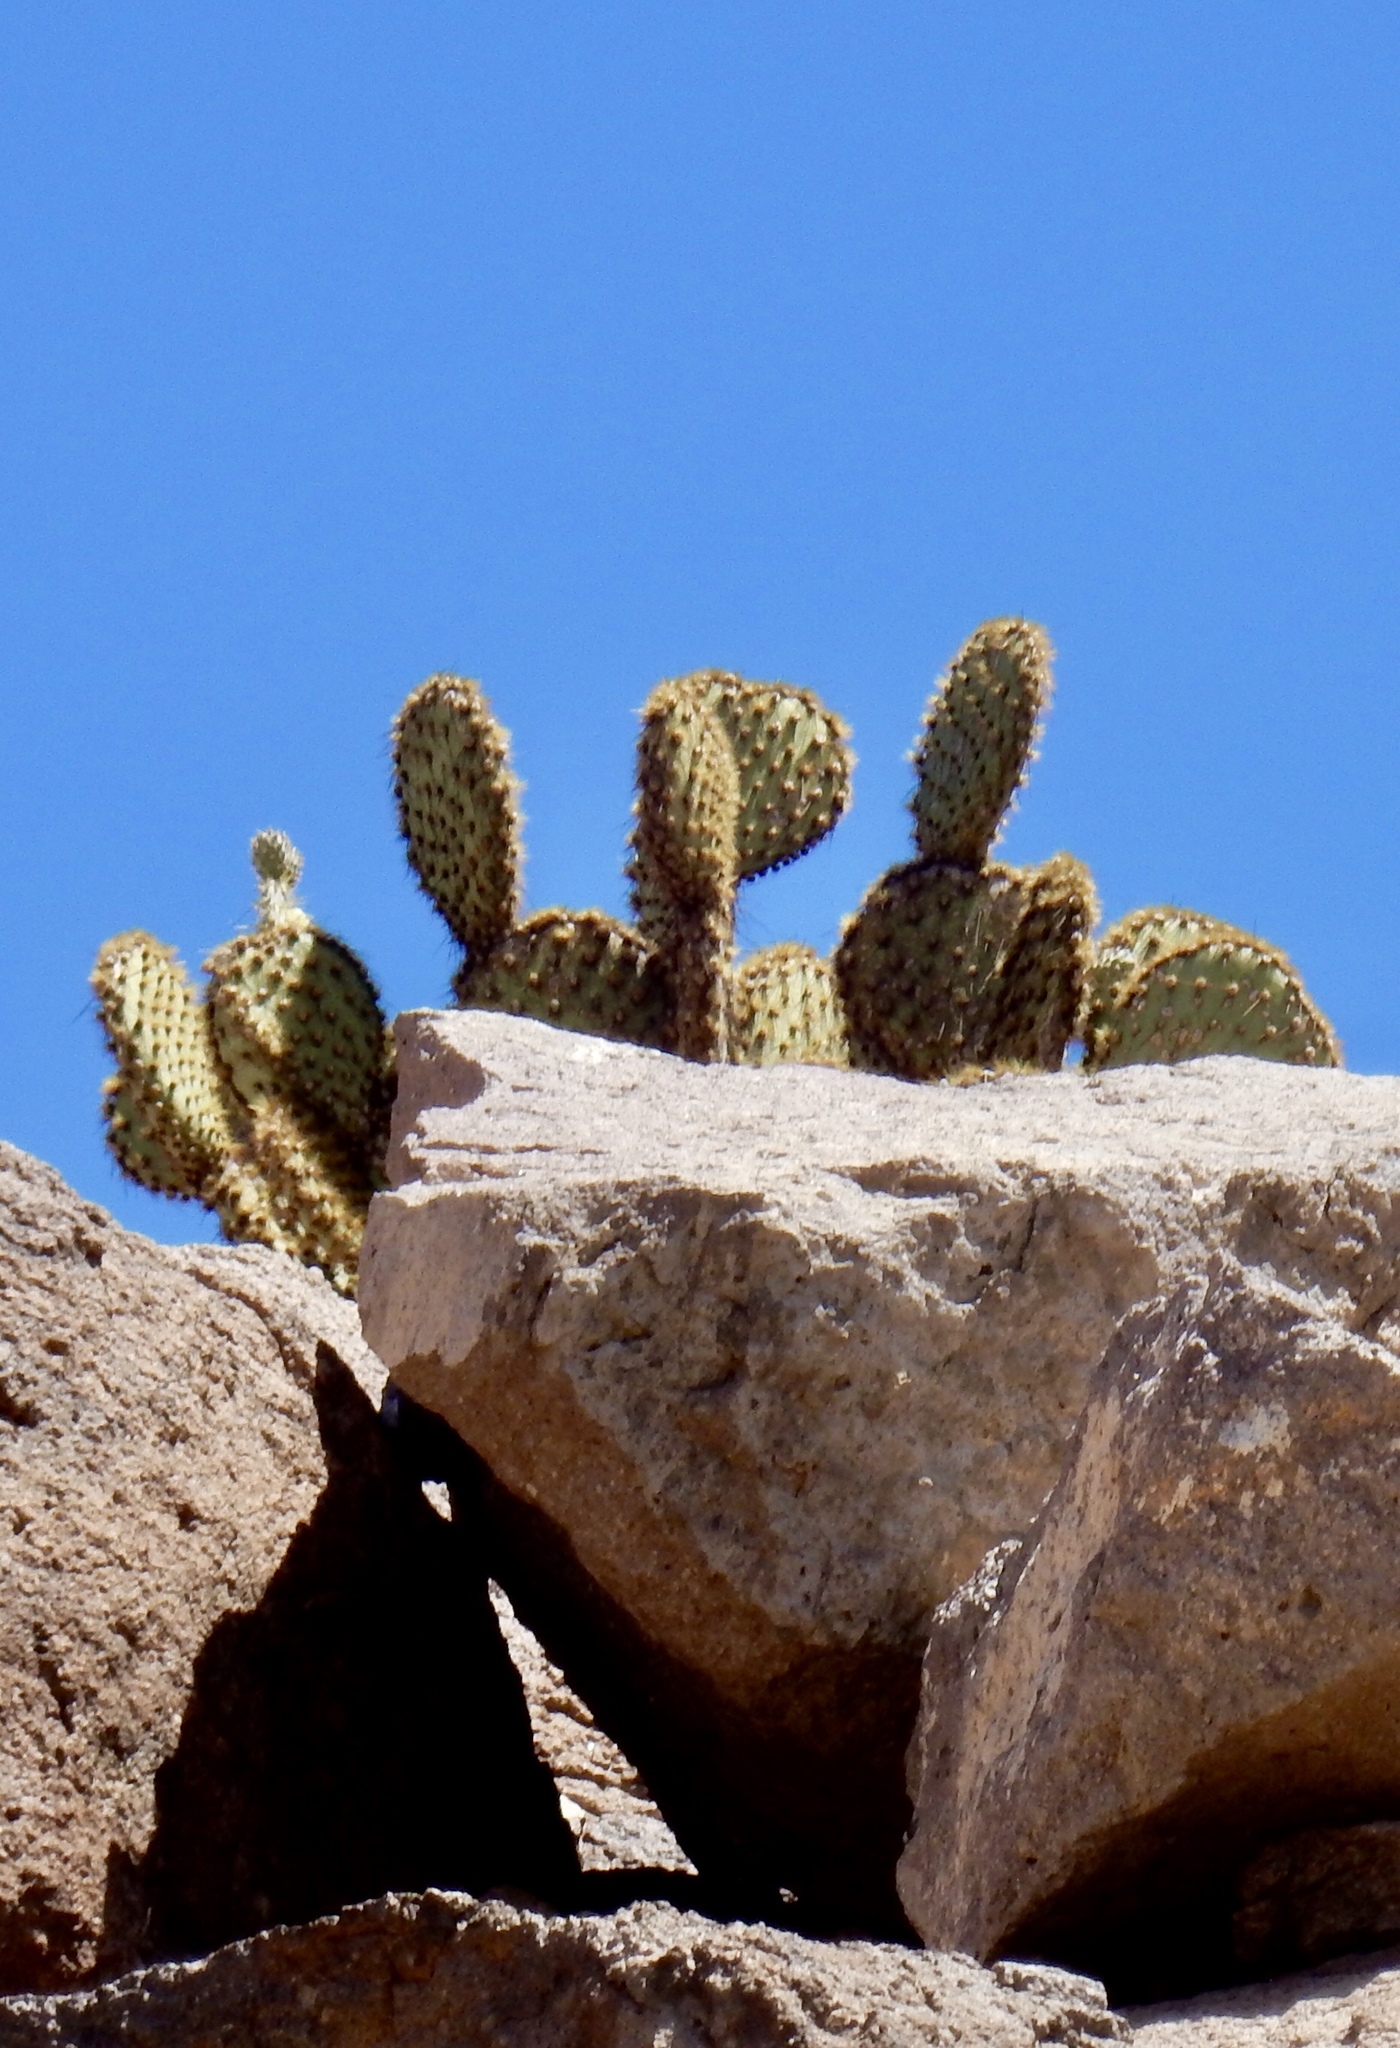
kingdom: Plantae
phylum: Tracheophyta
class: Magnoliopsida
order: Caryophyllales
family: Cactaceae
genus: Opuntia
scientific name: Opuntia chlorotica
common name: Dollar-joint prickly-pear
